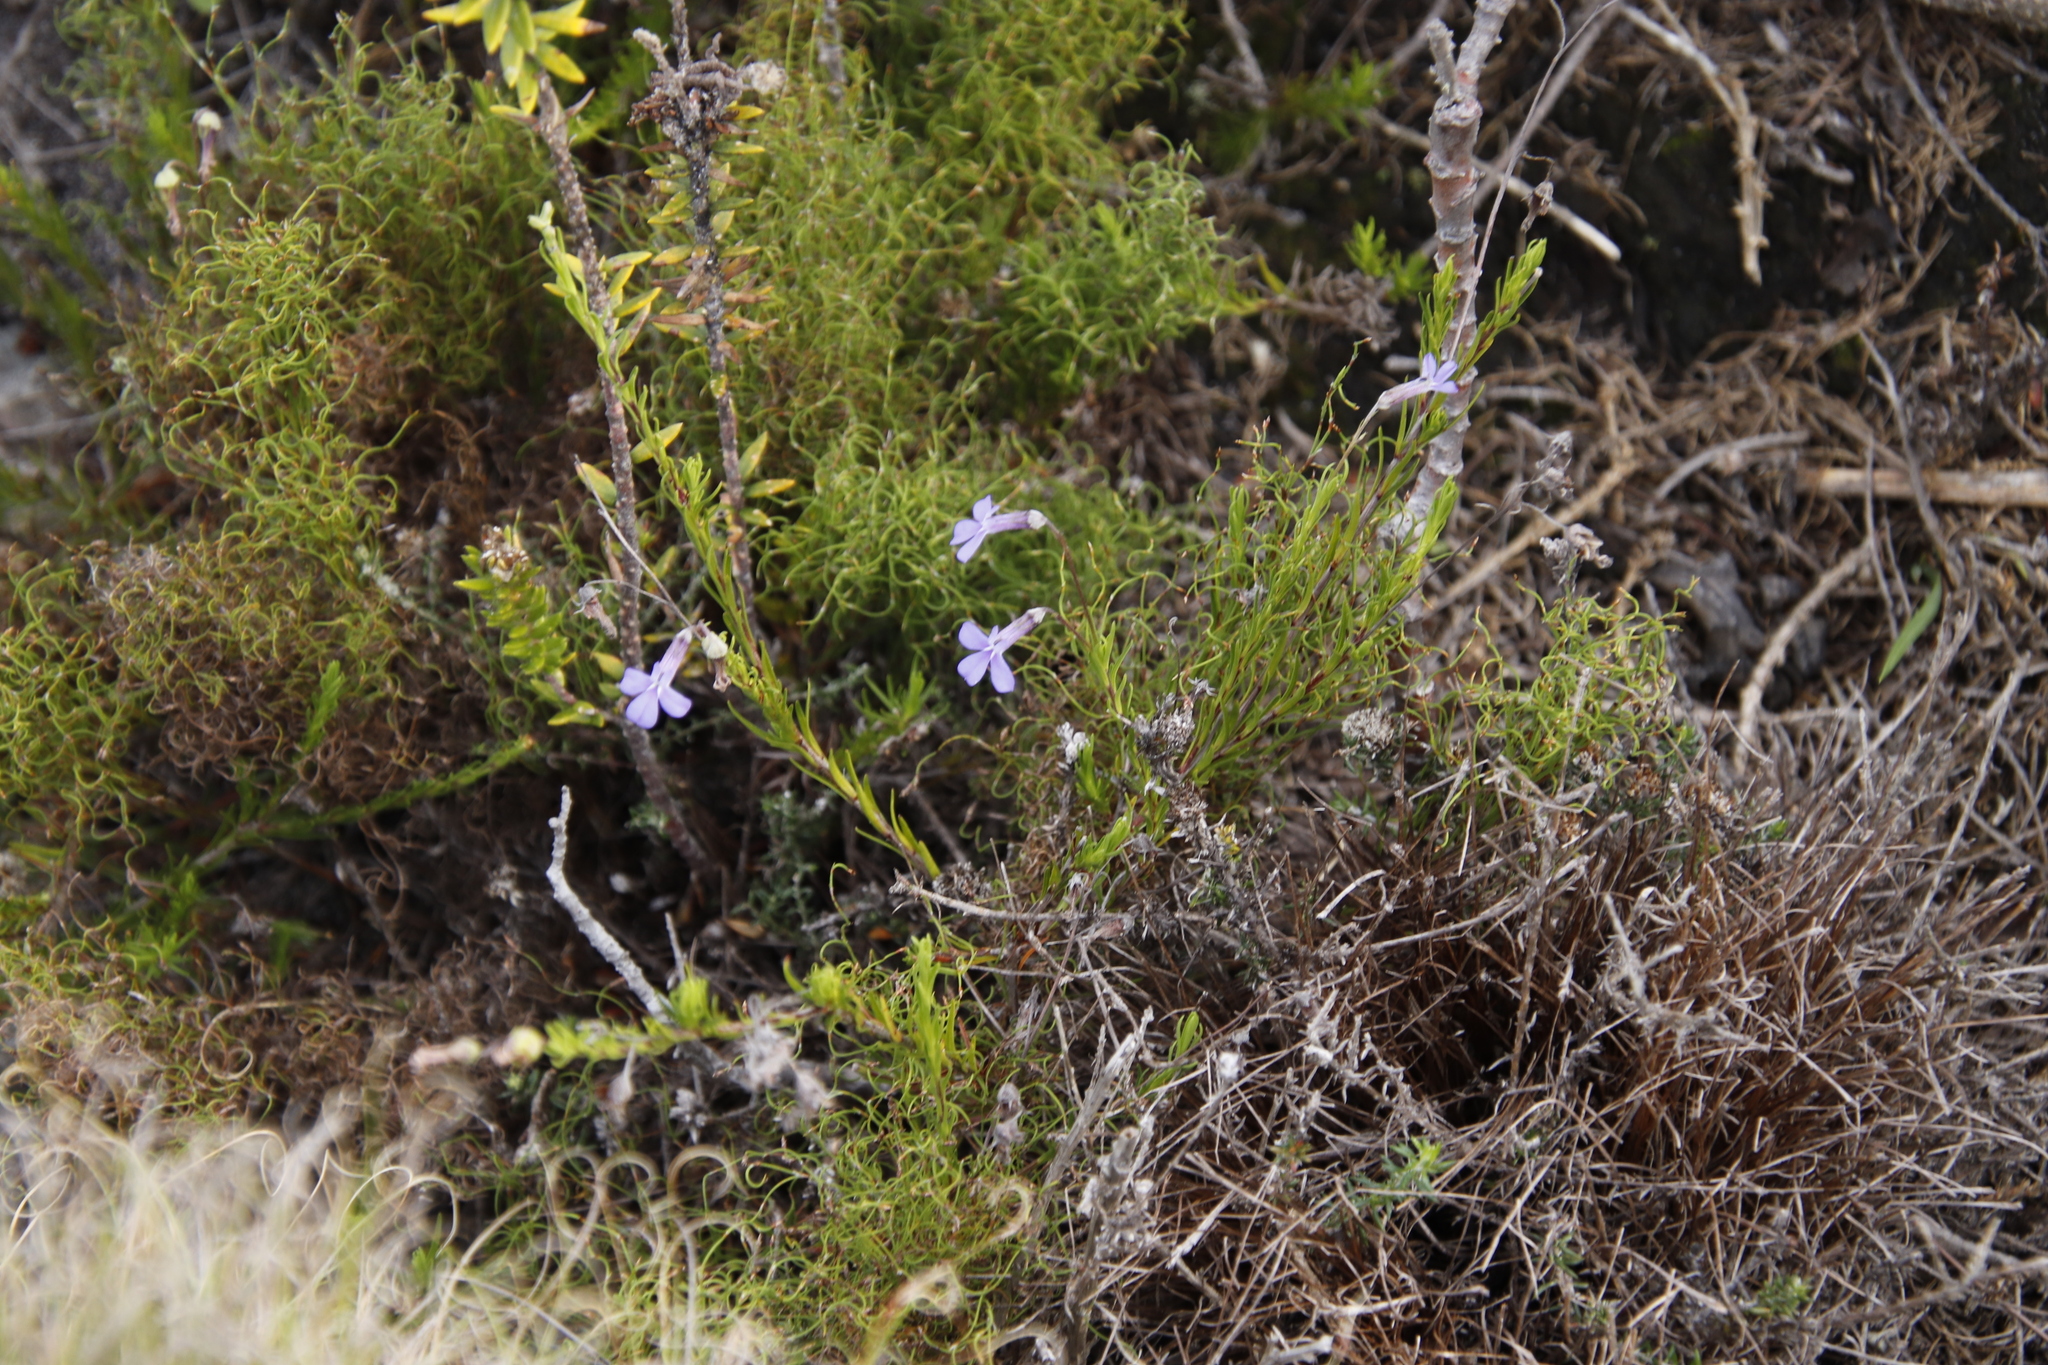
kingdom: Plantae
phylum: Tracheophyta
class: Magnoliopsida
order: Asterales
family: Campanulaceae
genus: Lobelia
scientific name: Lobelia pinifolia
